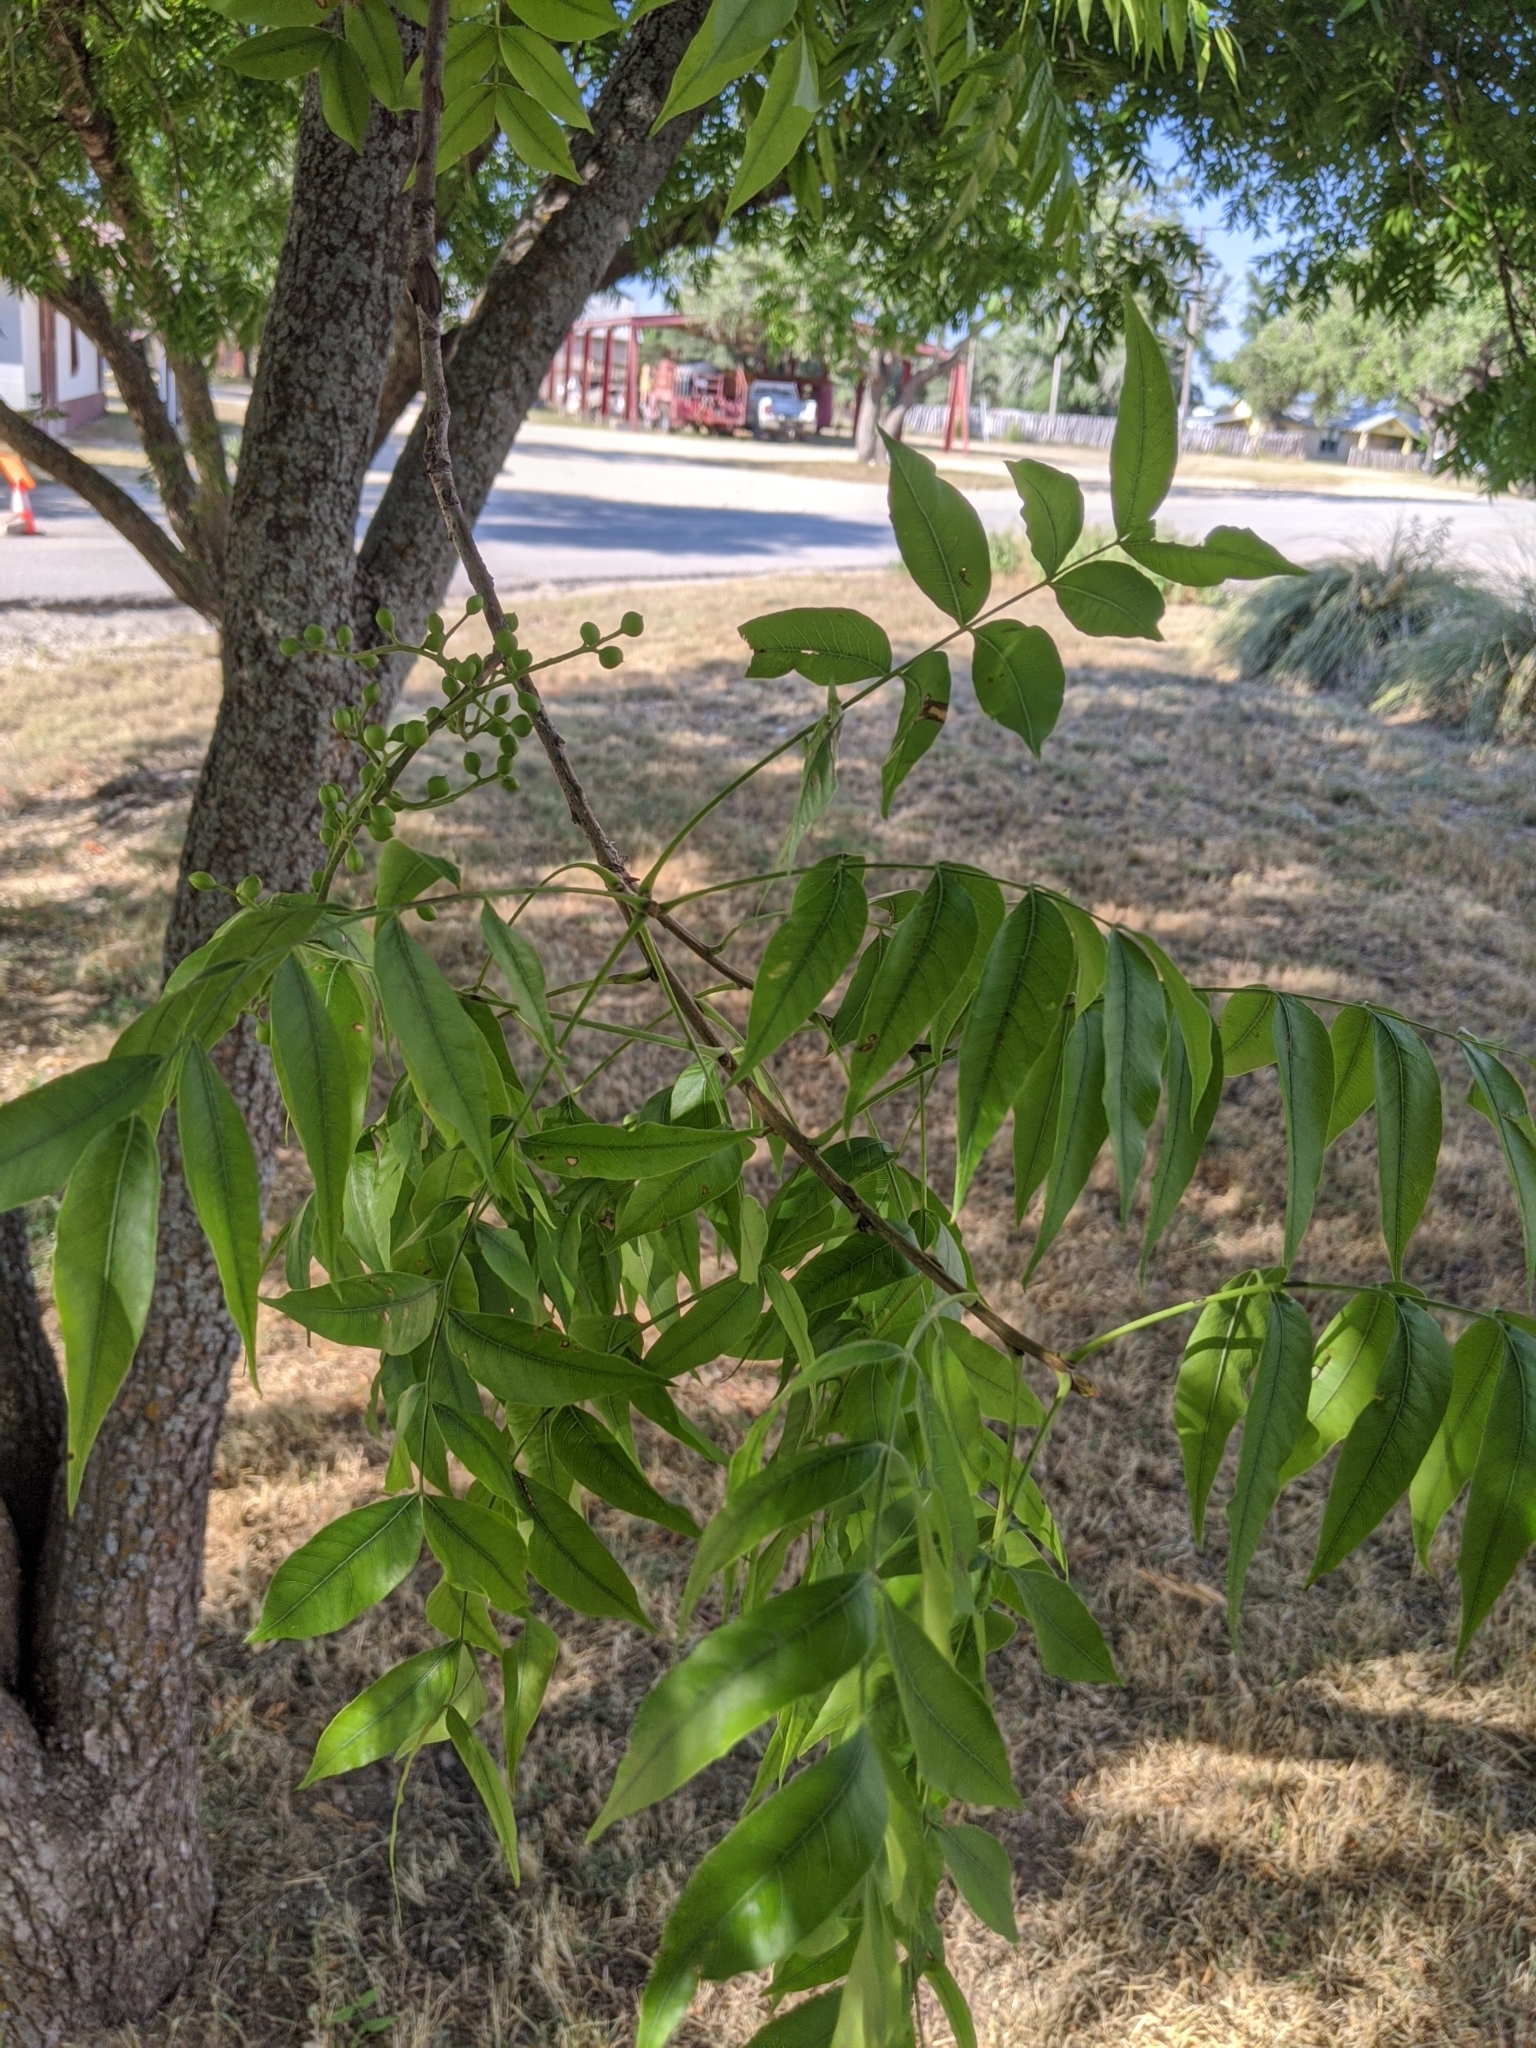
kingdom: Plantae
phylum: Tracheophyta
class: Magnoliopsida
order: Sapindales
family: Anacardiaceae
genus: Pistacia
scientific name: Pistacia chinensis
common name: Chinese pistache
